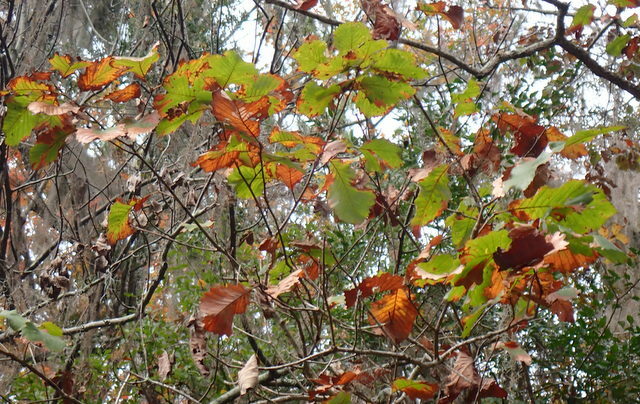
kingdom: Plantae
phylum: Tracheophyta
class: Magnoliopsida
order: Fagales
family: Fagaceae
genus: Quercus
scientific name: Quercus michauxii
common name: Swamp chestnut oak
